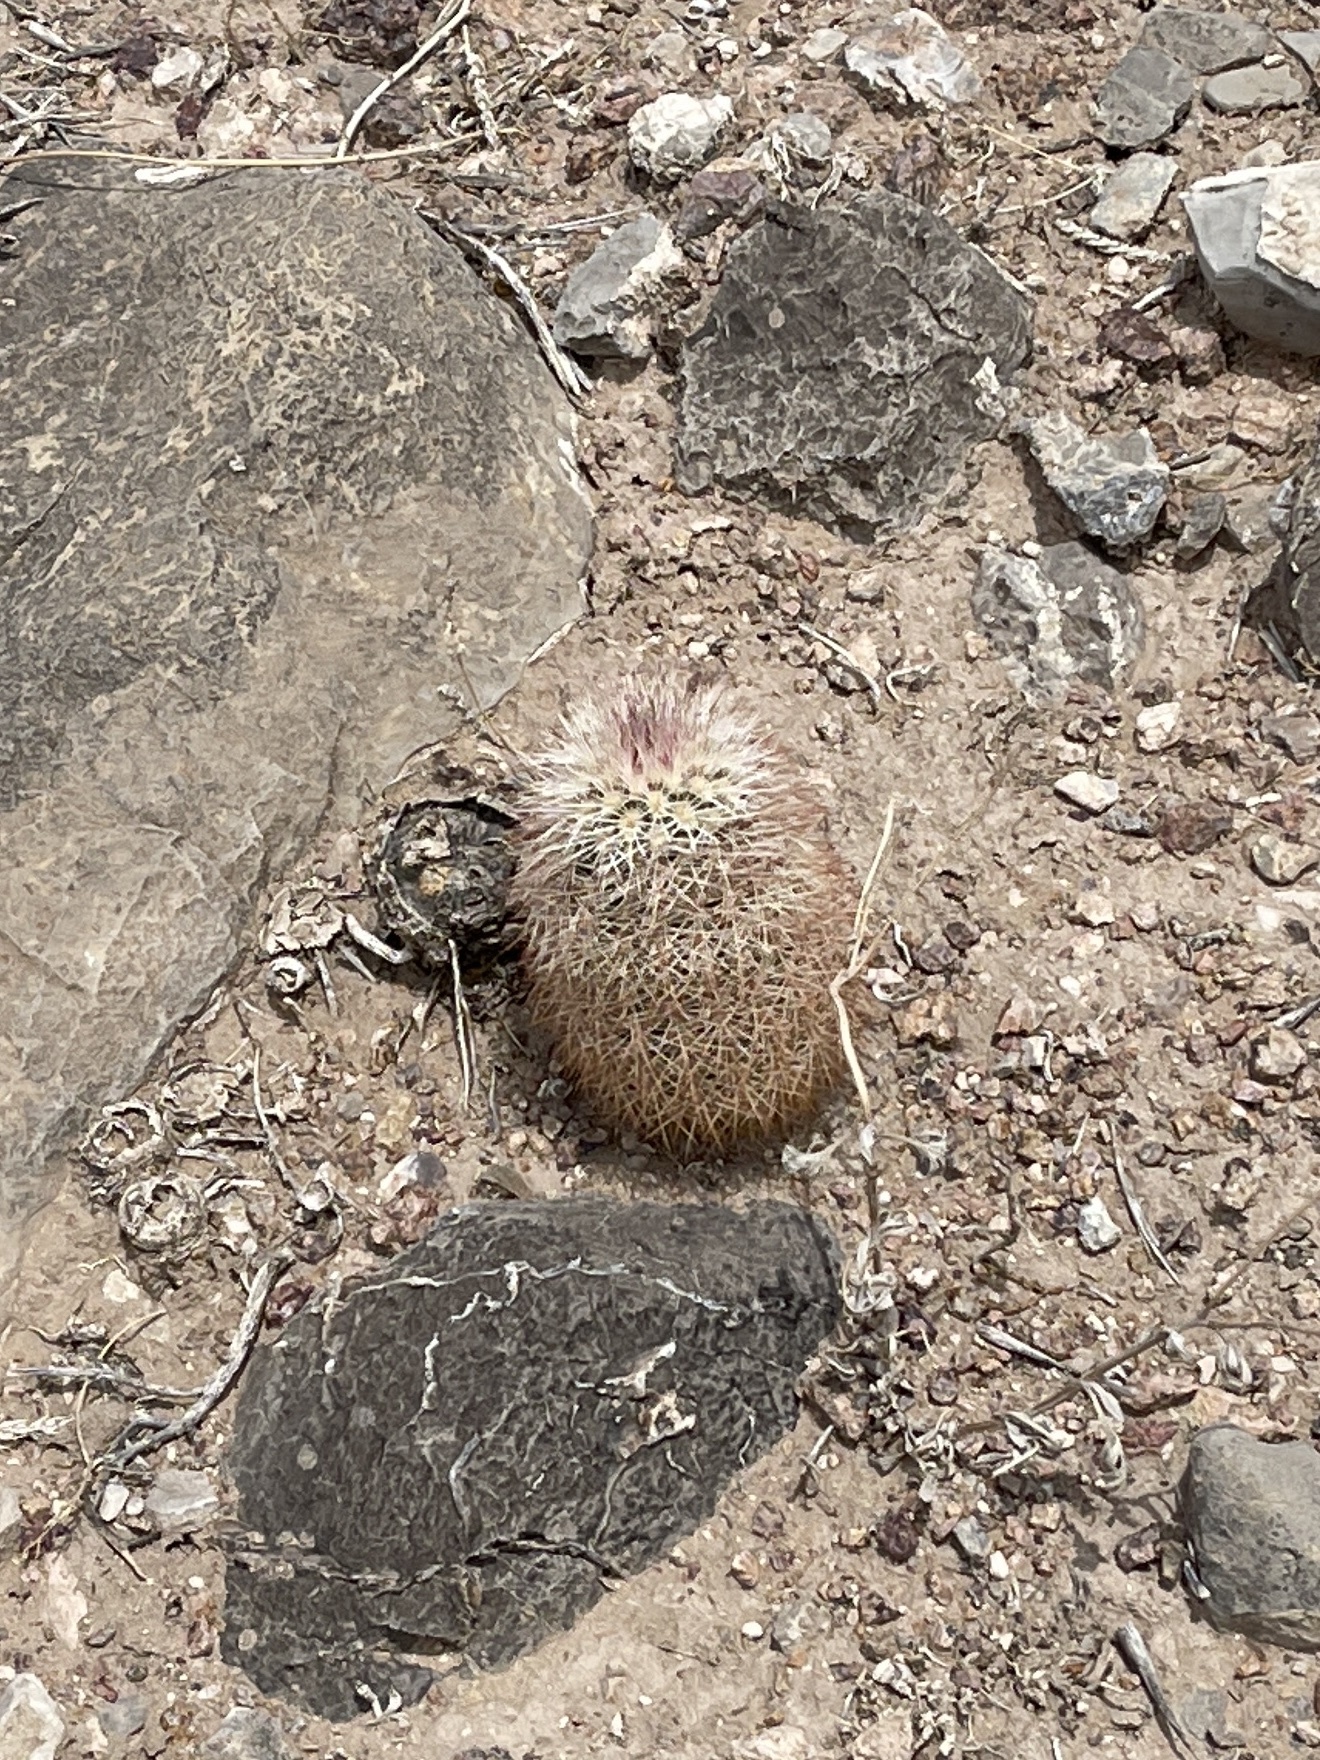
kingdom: Plantae
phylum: Tracheophyta
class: Magnoliopsida
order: Caryophyllales
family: Cactaceae
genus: Echinocereus
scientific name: Echinocereus dasyacanthus
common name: Spiny hedgehog cactus
